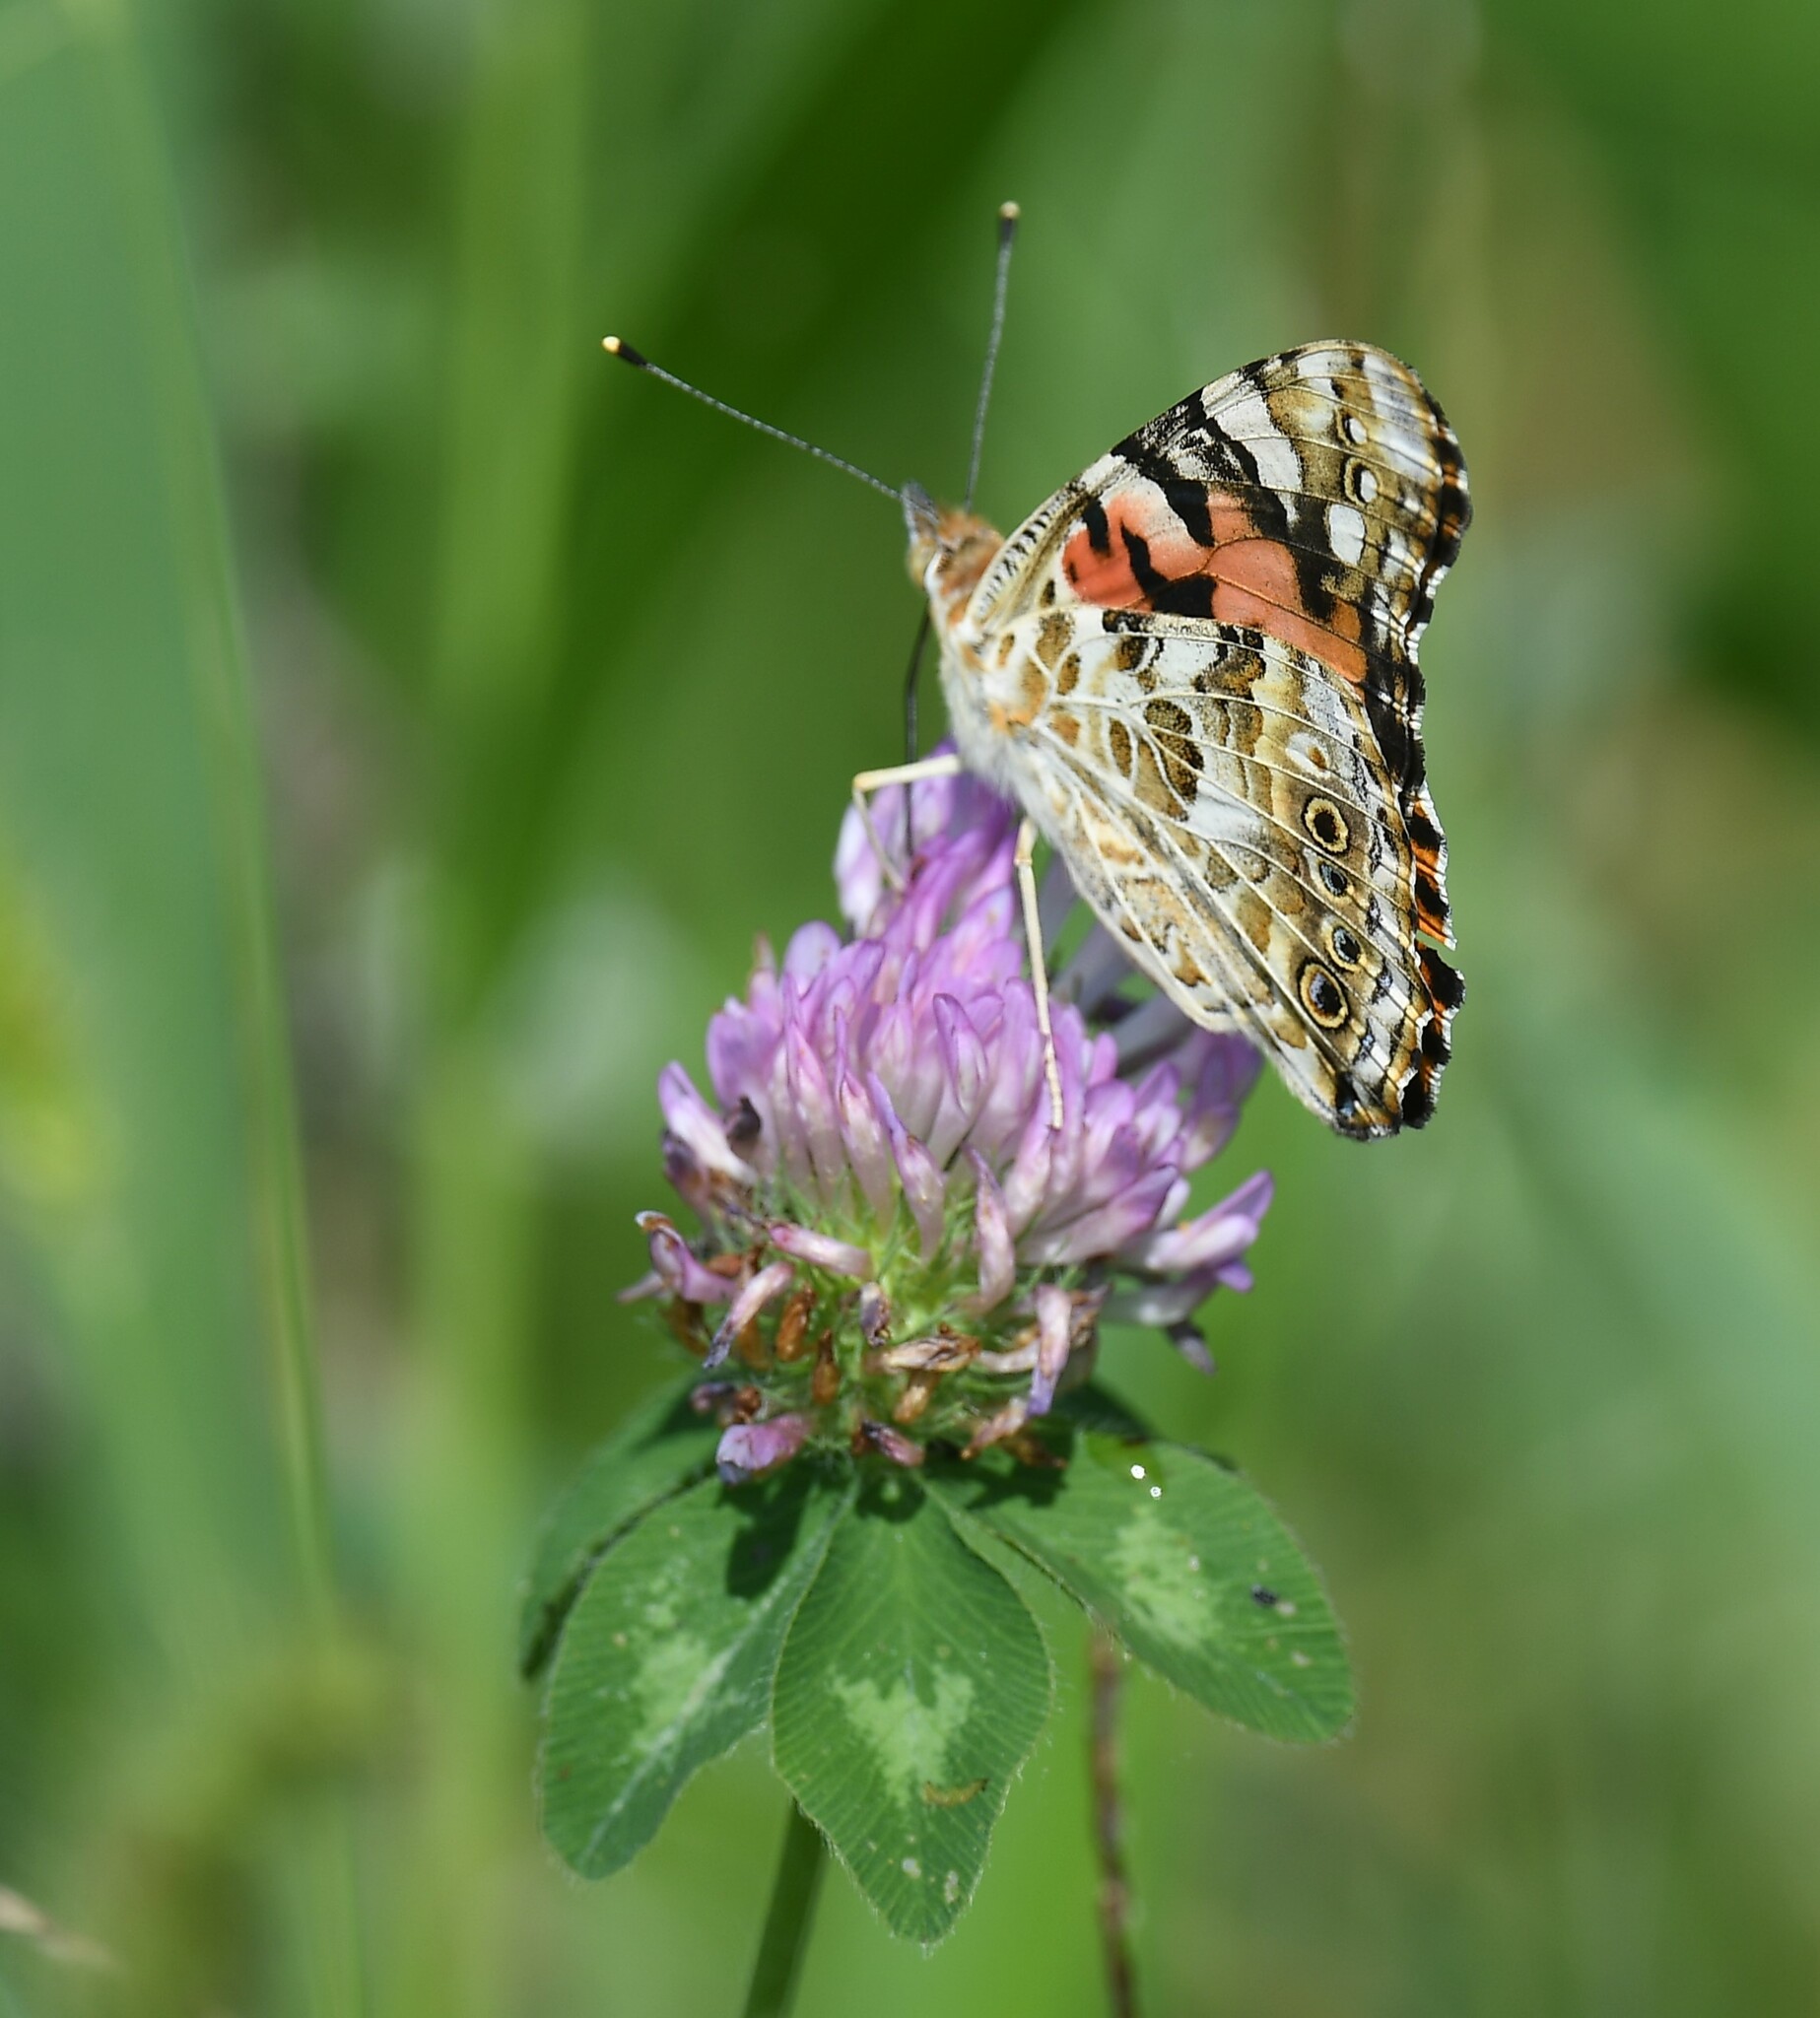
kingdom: Animalia
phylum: Arthropoda
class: Insecta
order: Lepidoptera
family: Nymphalidae
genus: Vanessa
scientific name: Vanessa cardui
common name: Painted lady
